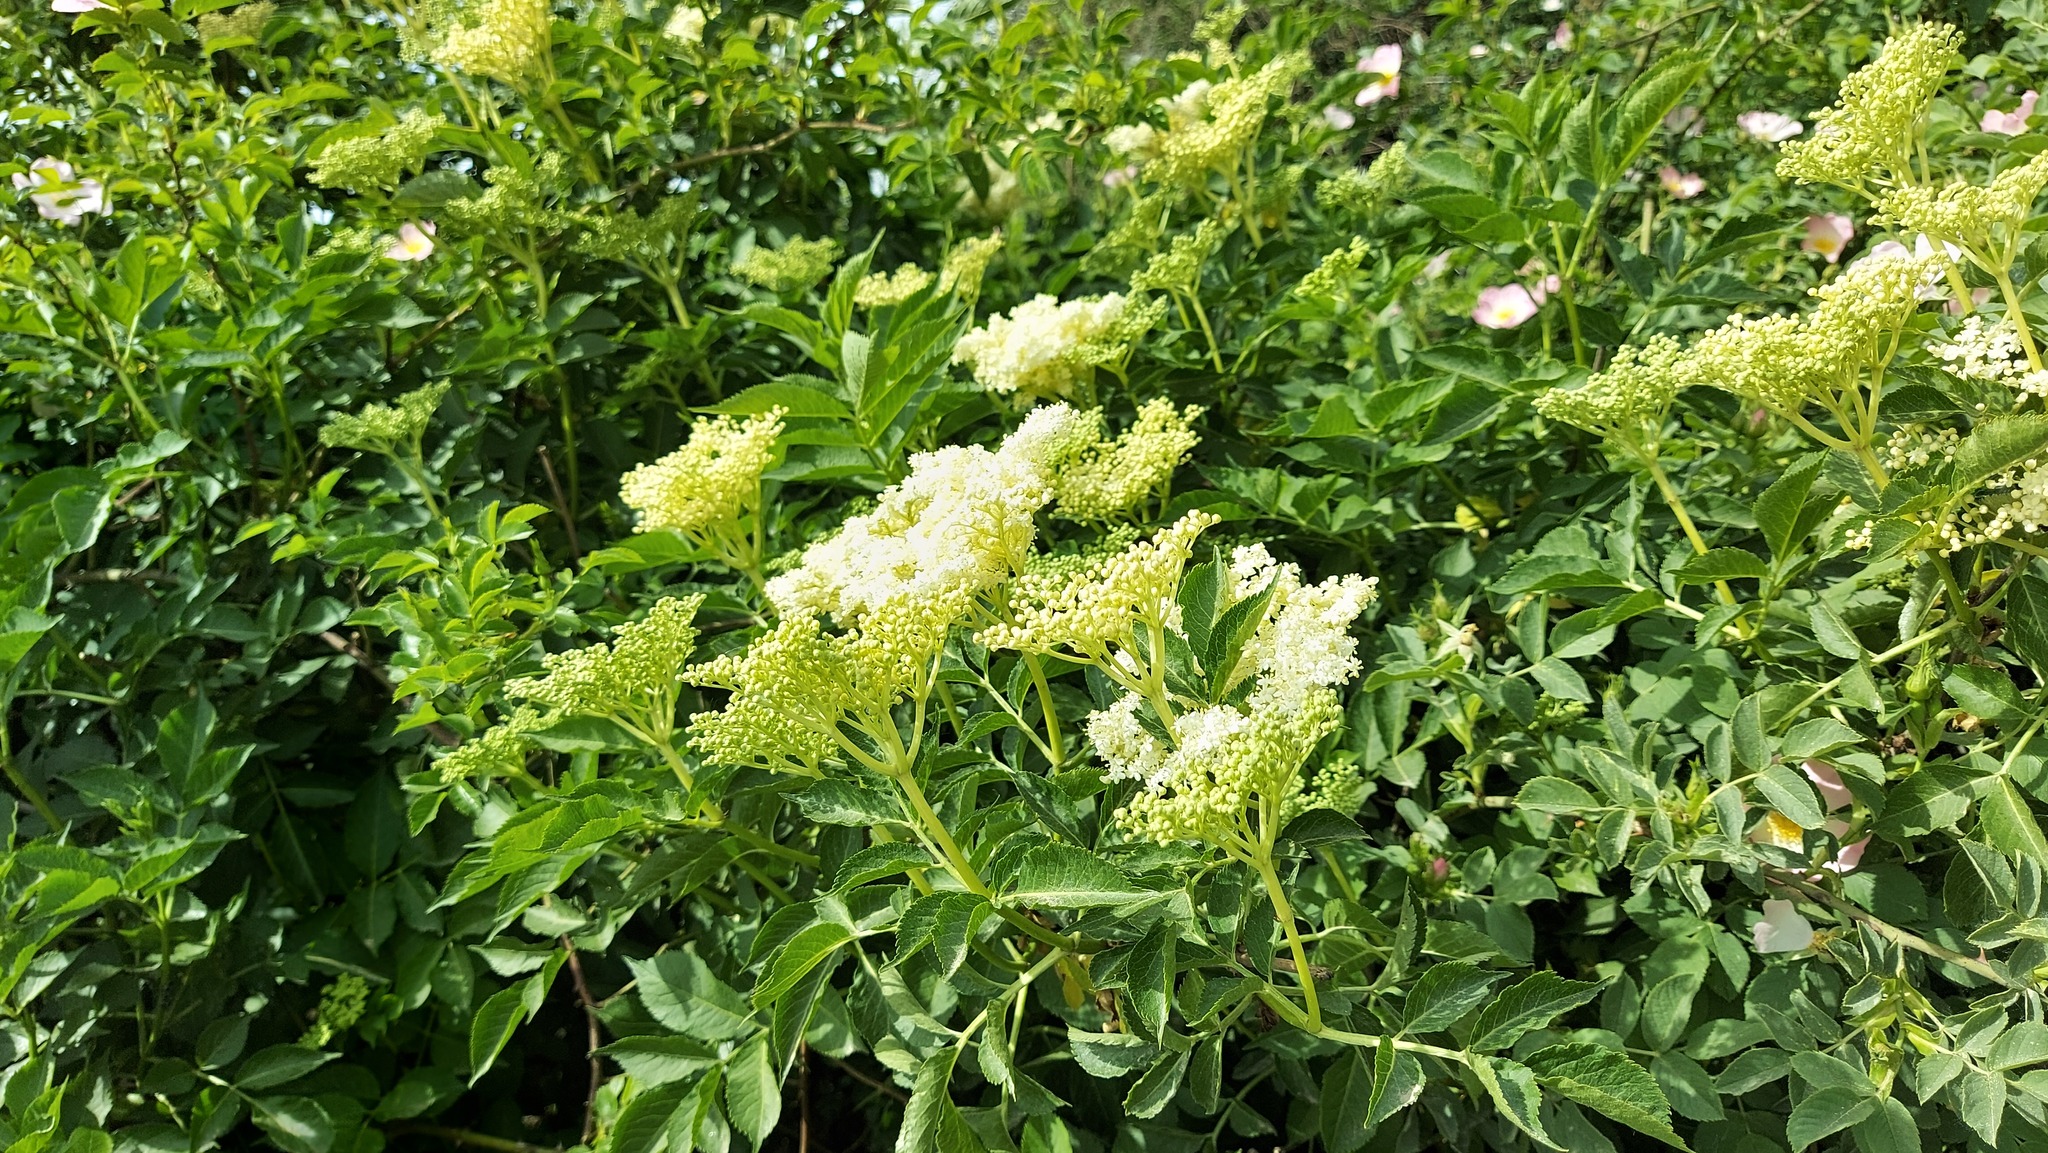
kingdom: Plantae
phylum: Tracheophyta
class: Magnoliopsida
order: Dipsacales
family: Viburnaceae
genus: Sambucus
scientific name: Sambucus nigra
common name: Elder
